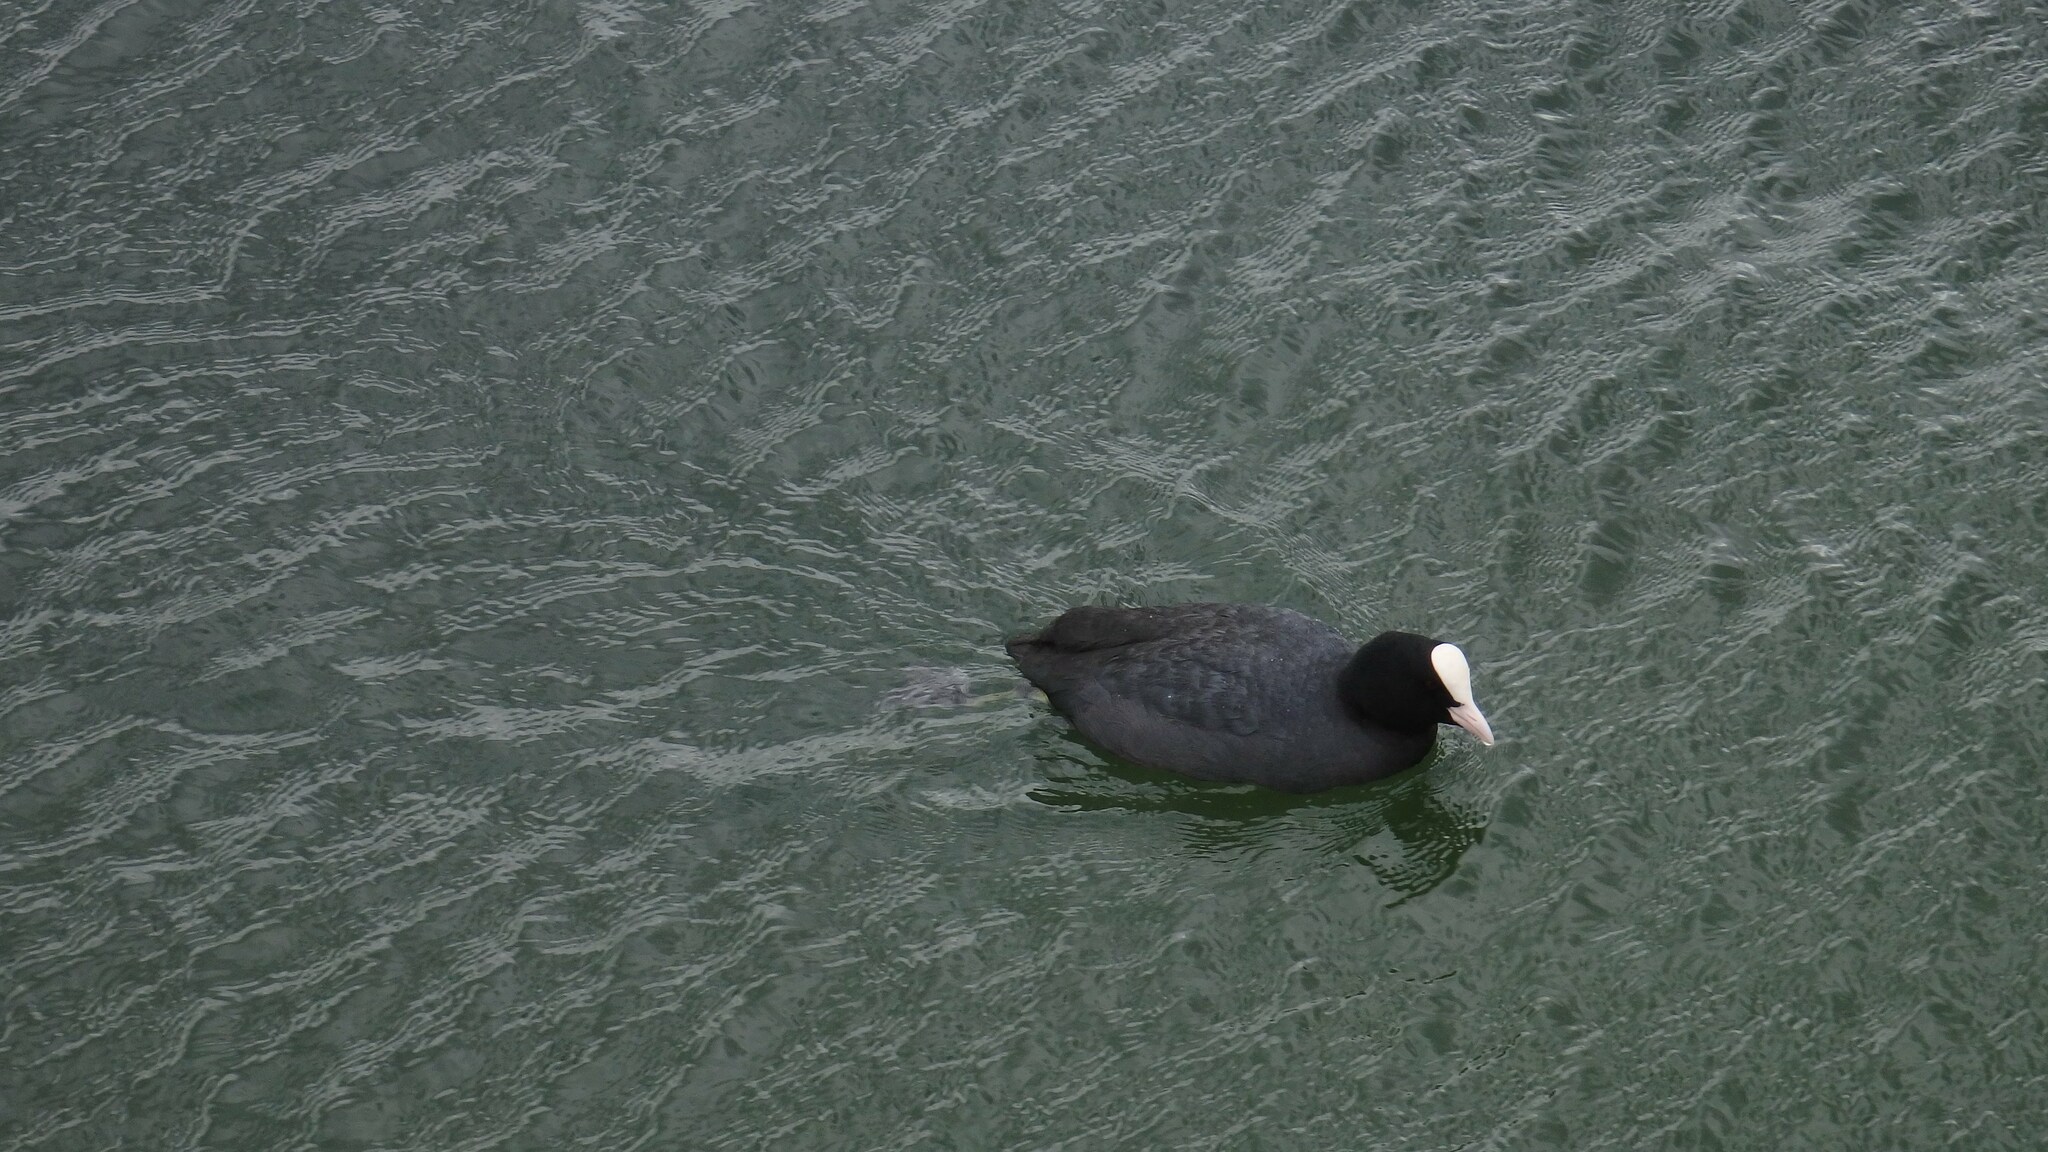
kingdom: Animalia
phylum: Chordata
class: Aves
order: Gruiformes
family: Rallidae
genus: Fulica
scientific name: Fulica atra
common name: Eurasian coot
